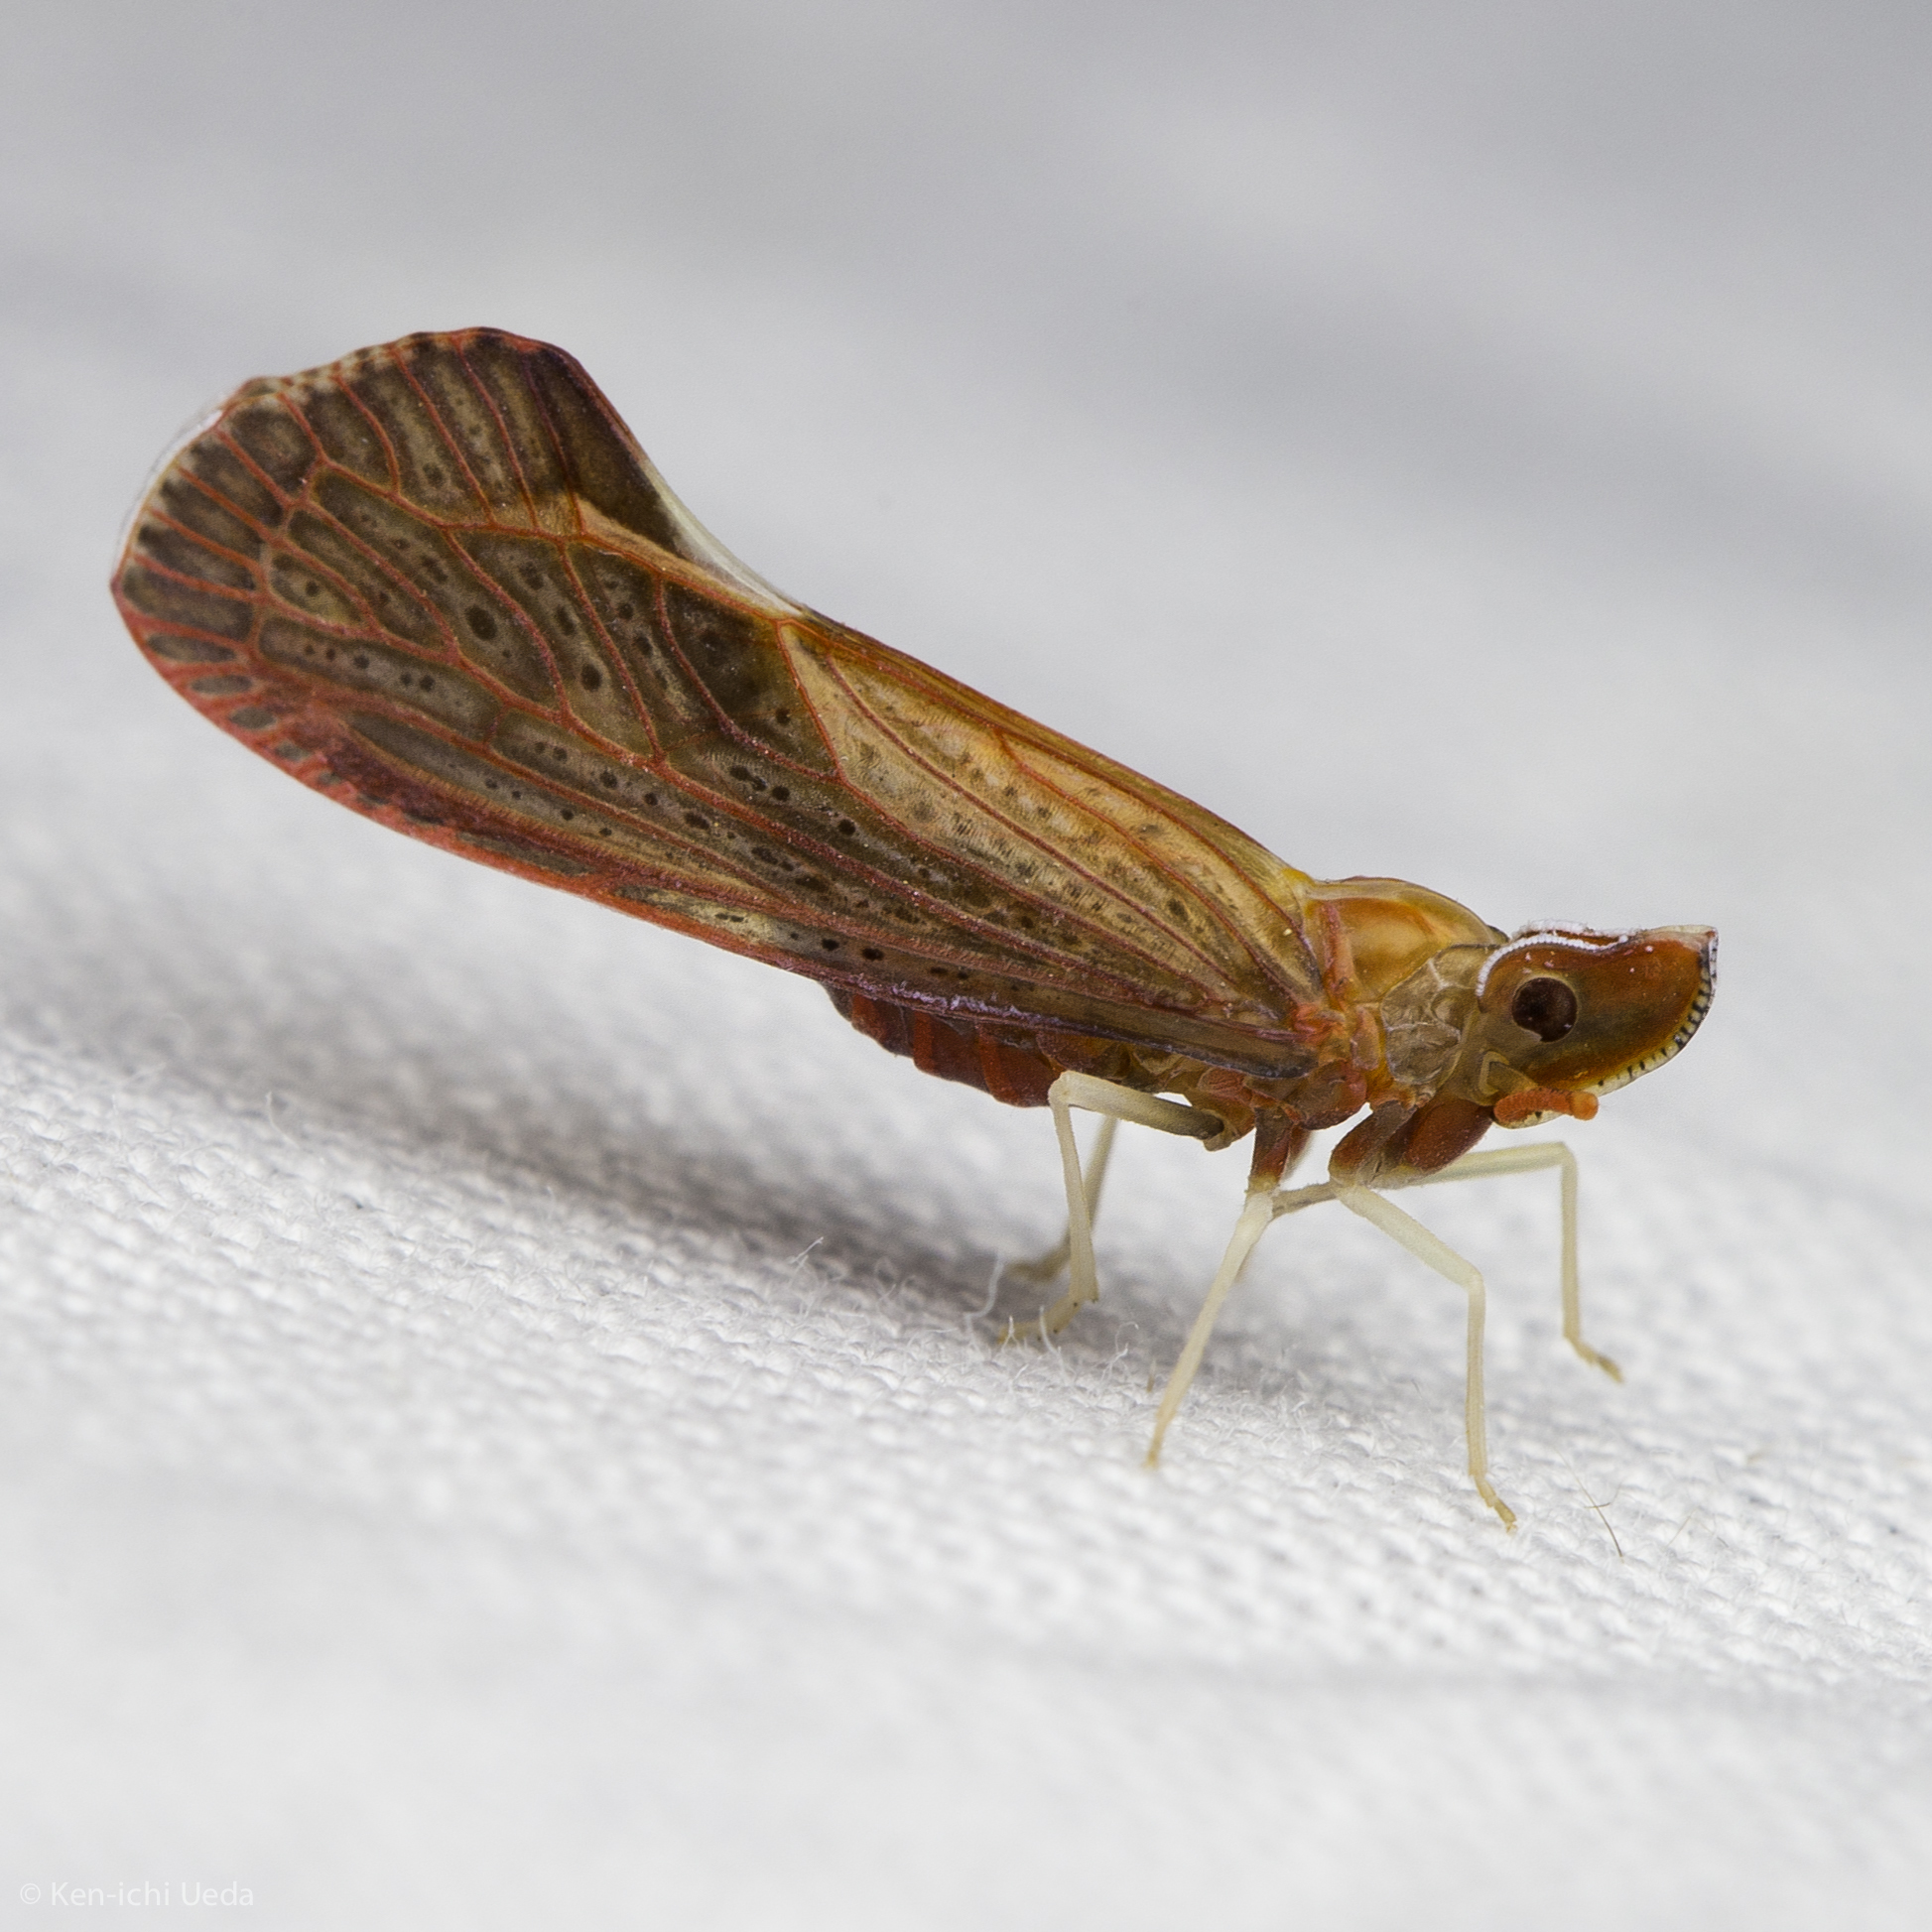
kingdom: Animalia
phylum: Arthropoda
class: Insecta
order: Hemiptera
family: Derbidae
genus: Apache
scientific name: Apache californicum
